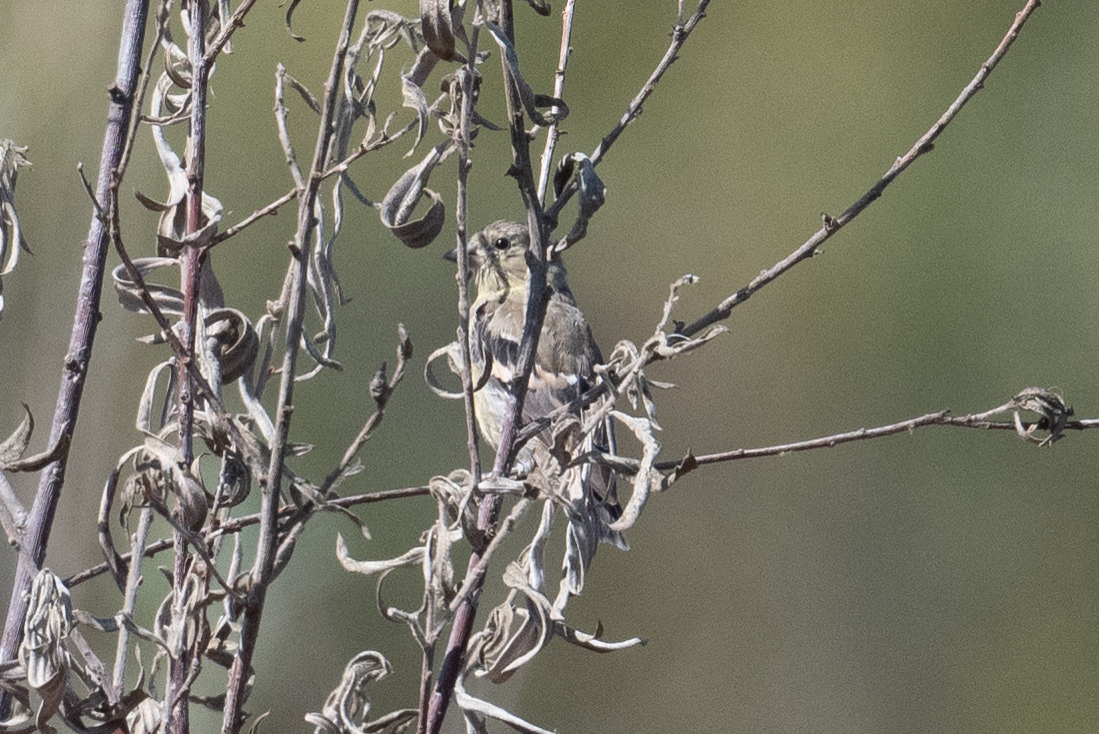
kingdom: Animalia
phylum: Chordata
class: Aves
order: Passeriformes
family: Fringillidae
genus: Spinus
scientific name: Spinus tristis
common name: American goldfinch
